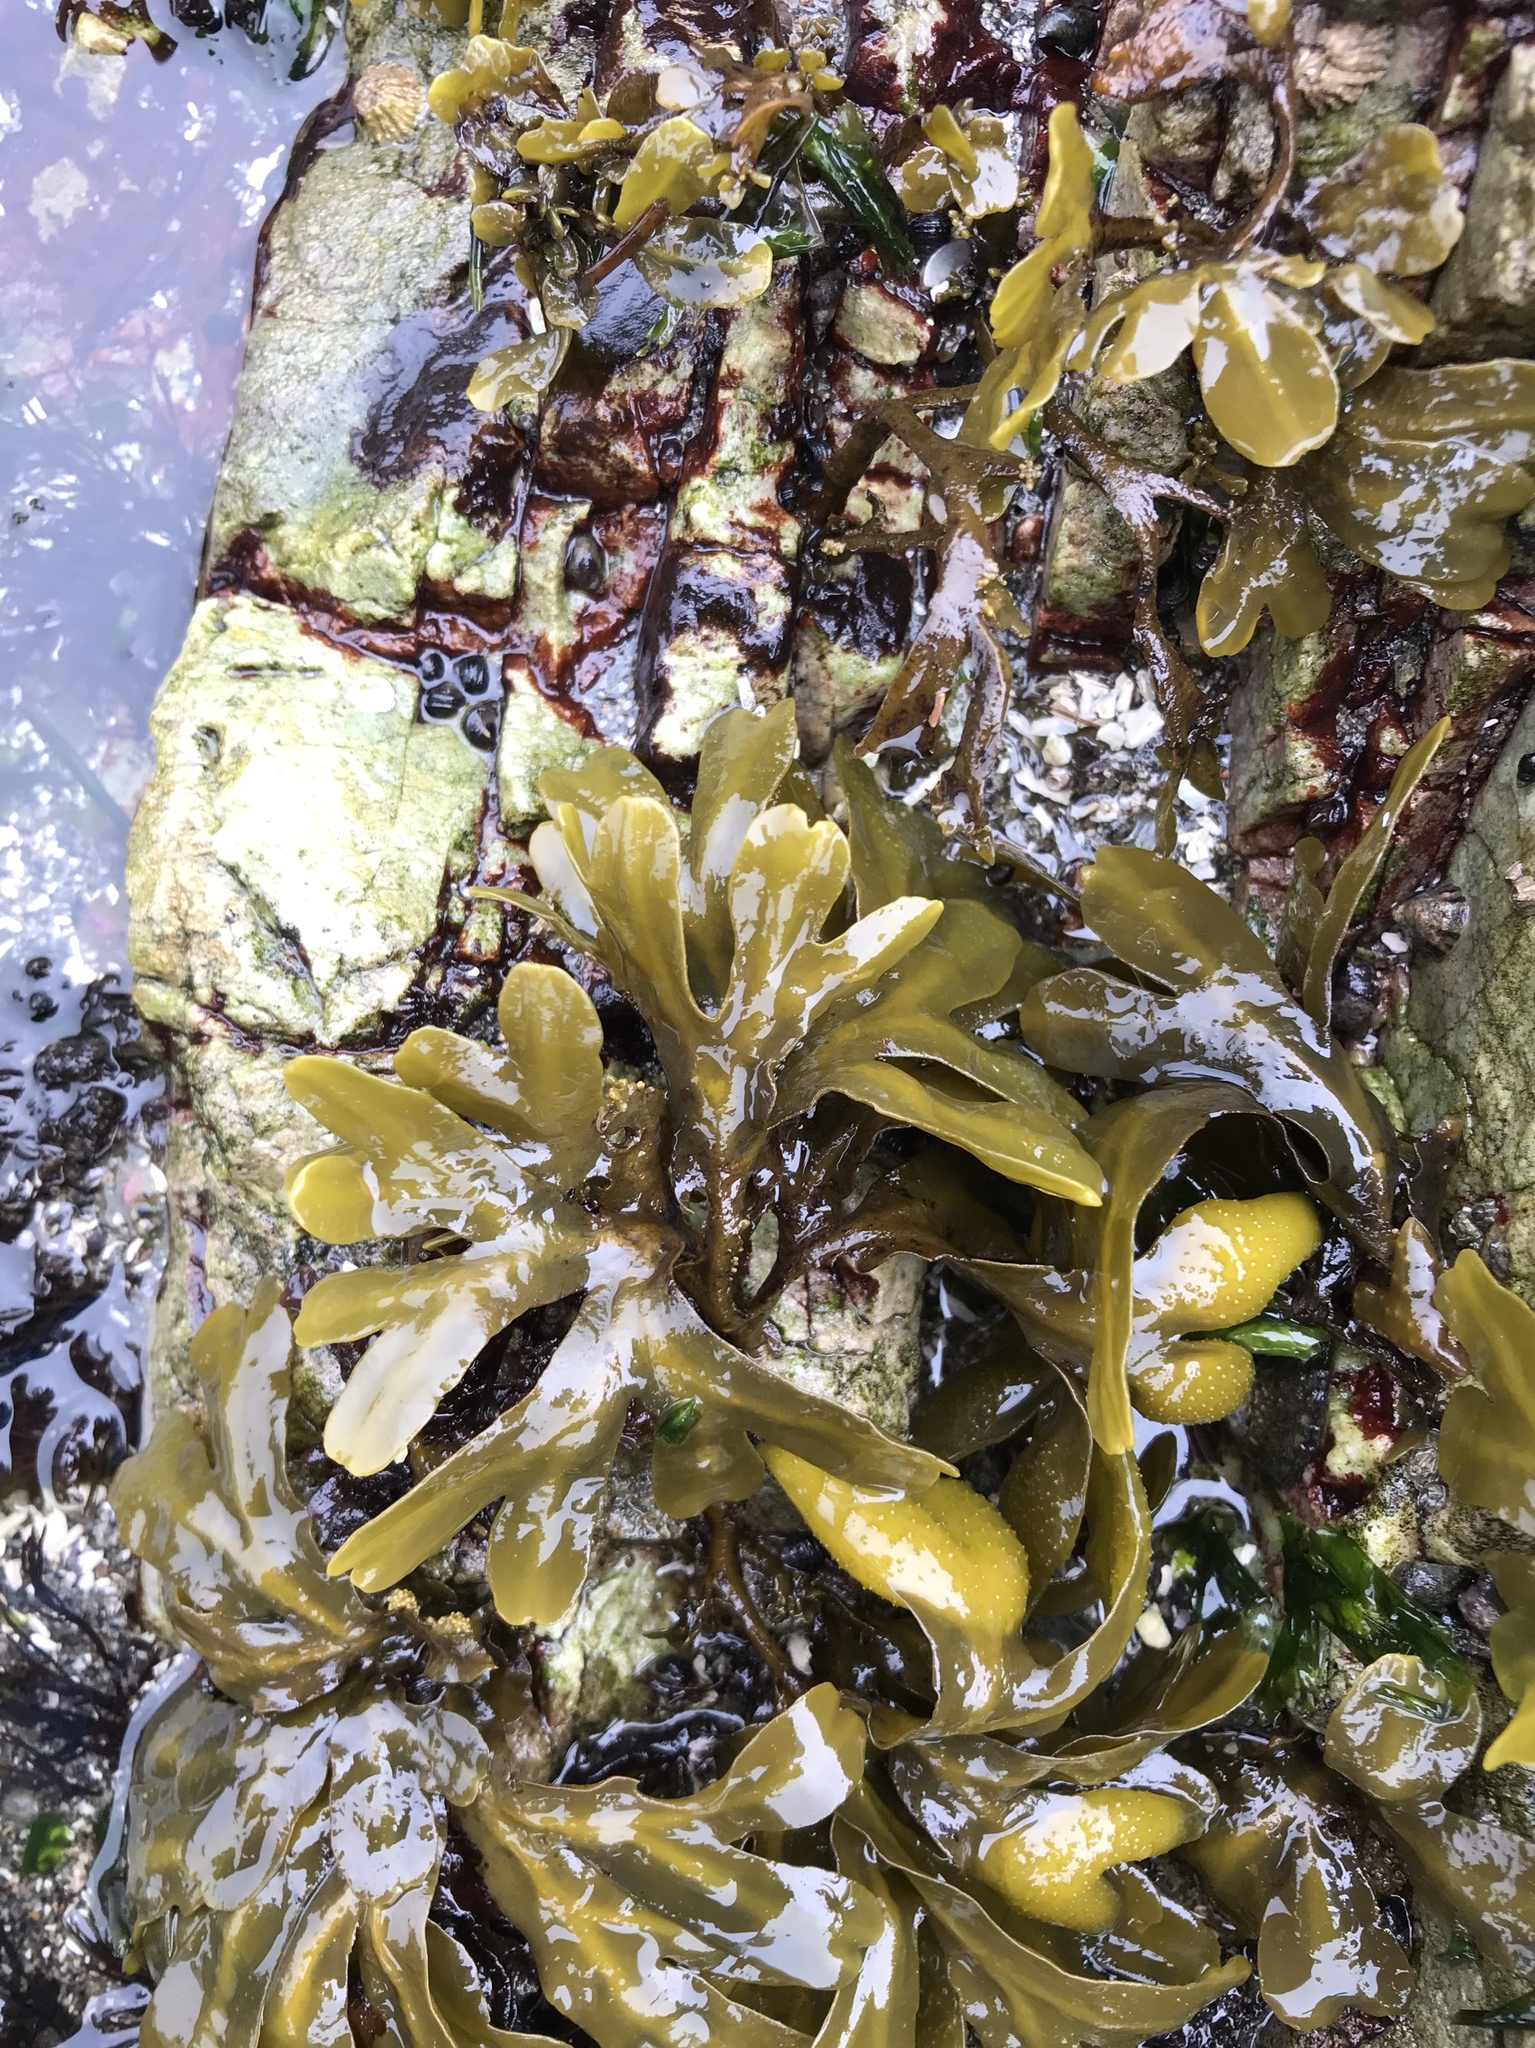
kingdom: Chromista
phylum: Ochrophyta
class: Phaeophyceae
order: Fucales
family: Fucaceae
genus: Fucus
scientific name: Fucus distichus
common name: Rockweed
